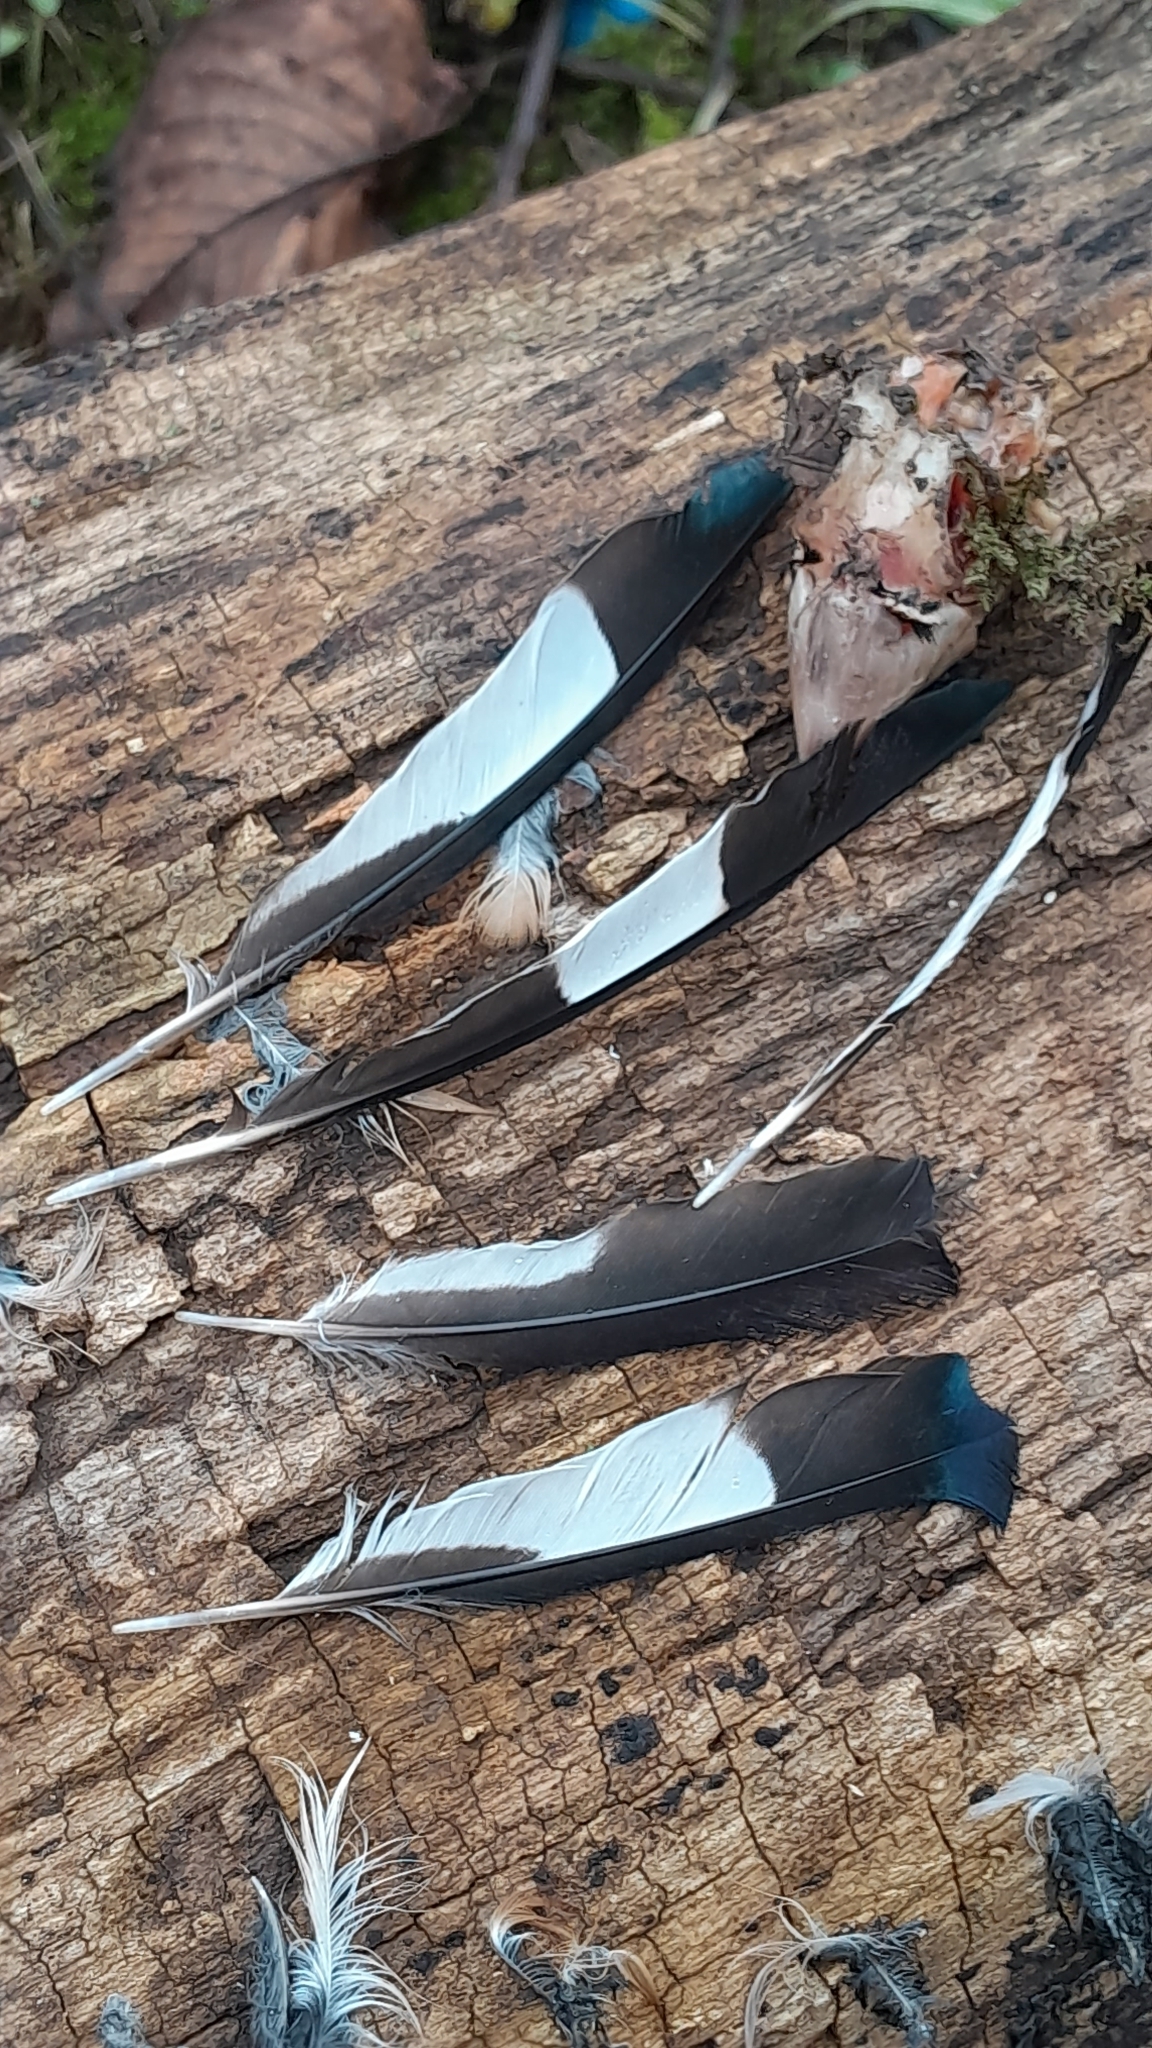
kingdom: Animalia
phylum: Chordata
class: Aves
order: Passeriformes
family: Fringillidae
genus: Coccothraustes
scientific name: Coccothraustes coccothraustes
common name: Hawfinch
